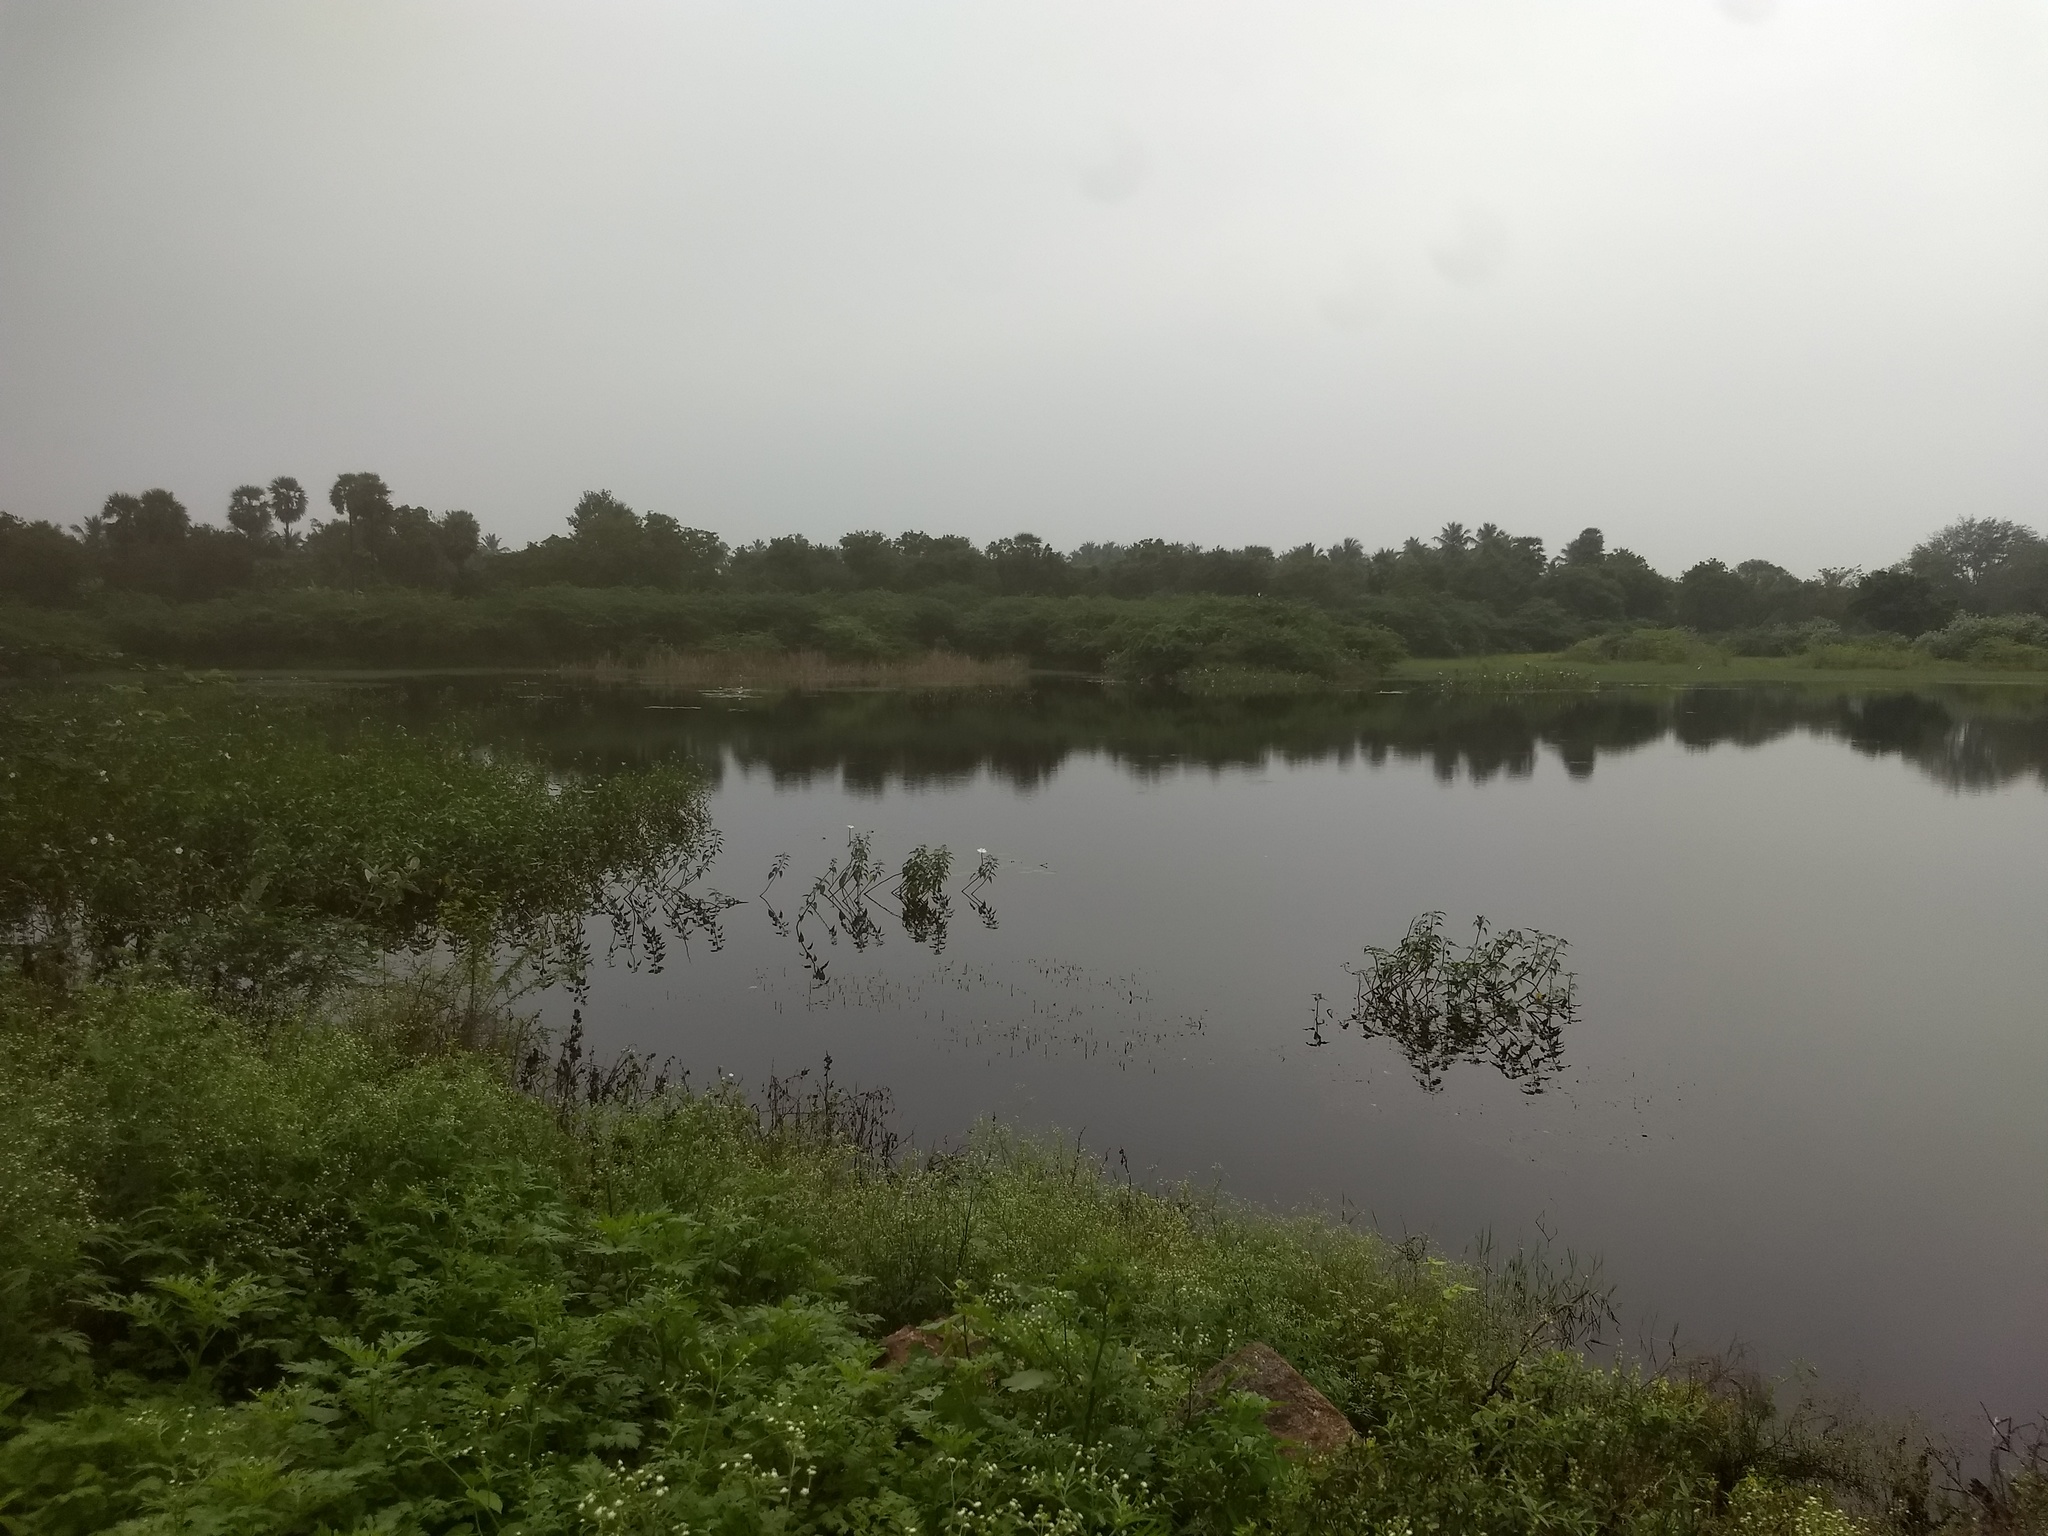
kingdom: Plantae
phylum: Tracheophyta
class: Magnoliopsida
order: Solanales
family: Convolvulaceae
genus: Ipomoea
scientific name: Ipomoea carnea
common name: Morning-glory
